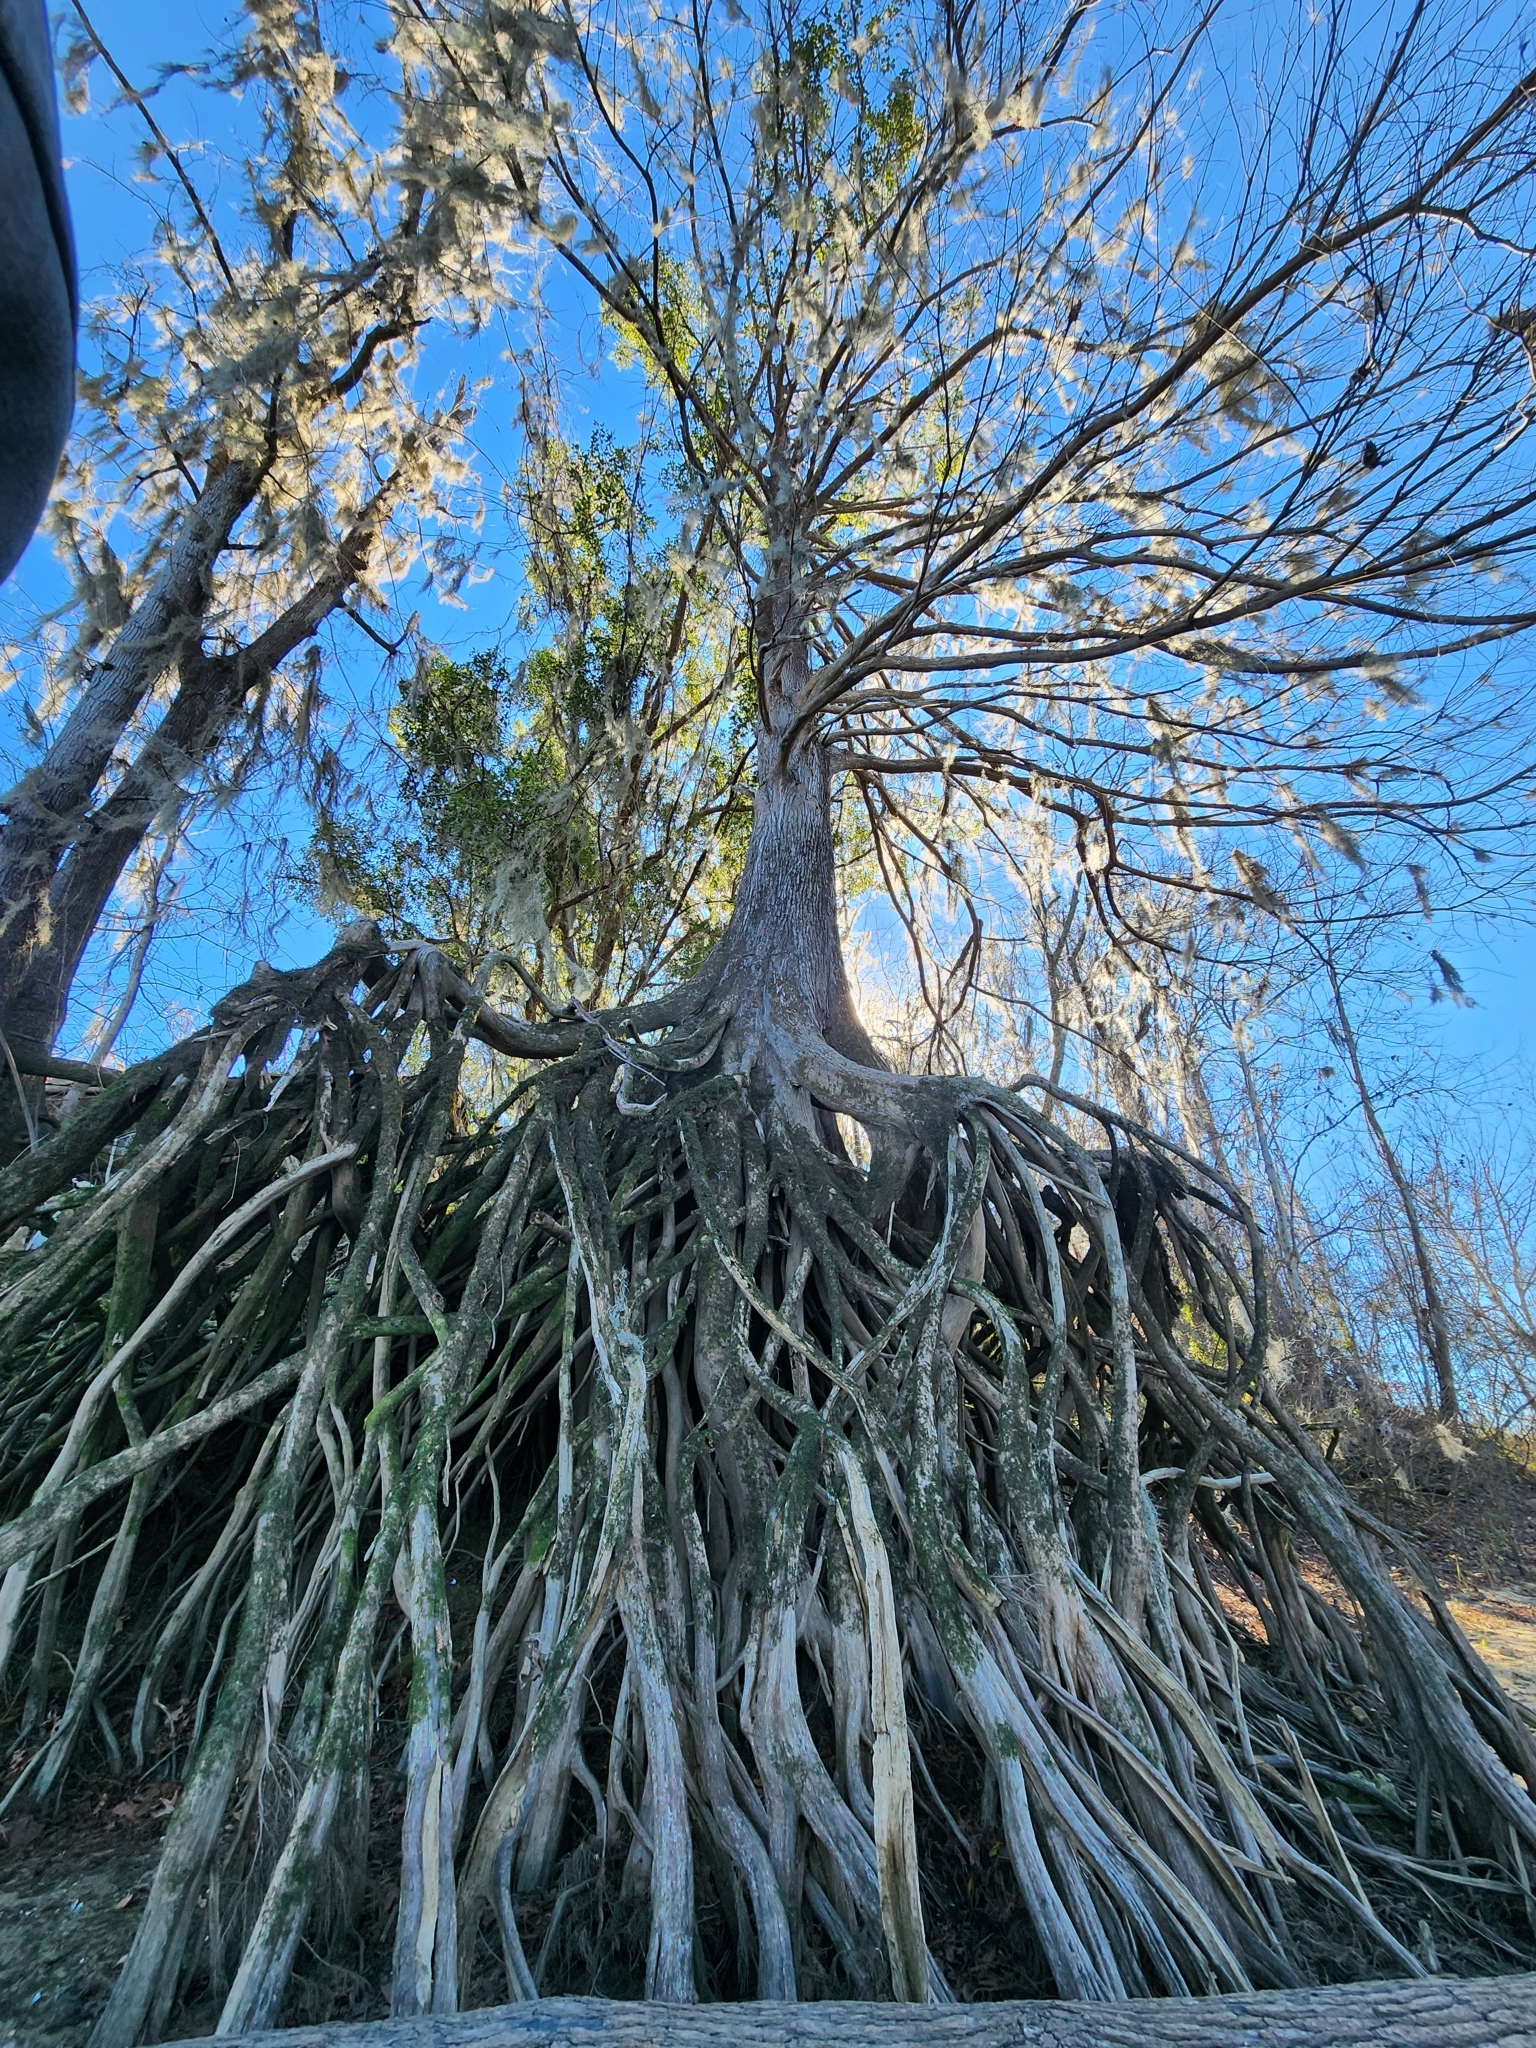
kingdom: Plantae
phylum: Tracheophyta
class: Pinopsida
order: Pinales
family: Cupressaceae
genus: Taxodium
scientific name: Taxodium distichum
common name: Bald cypress
